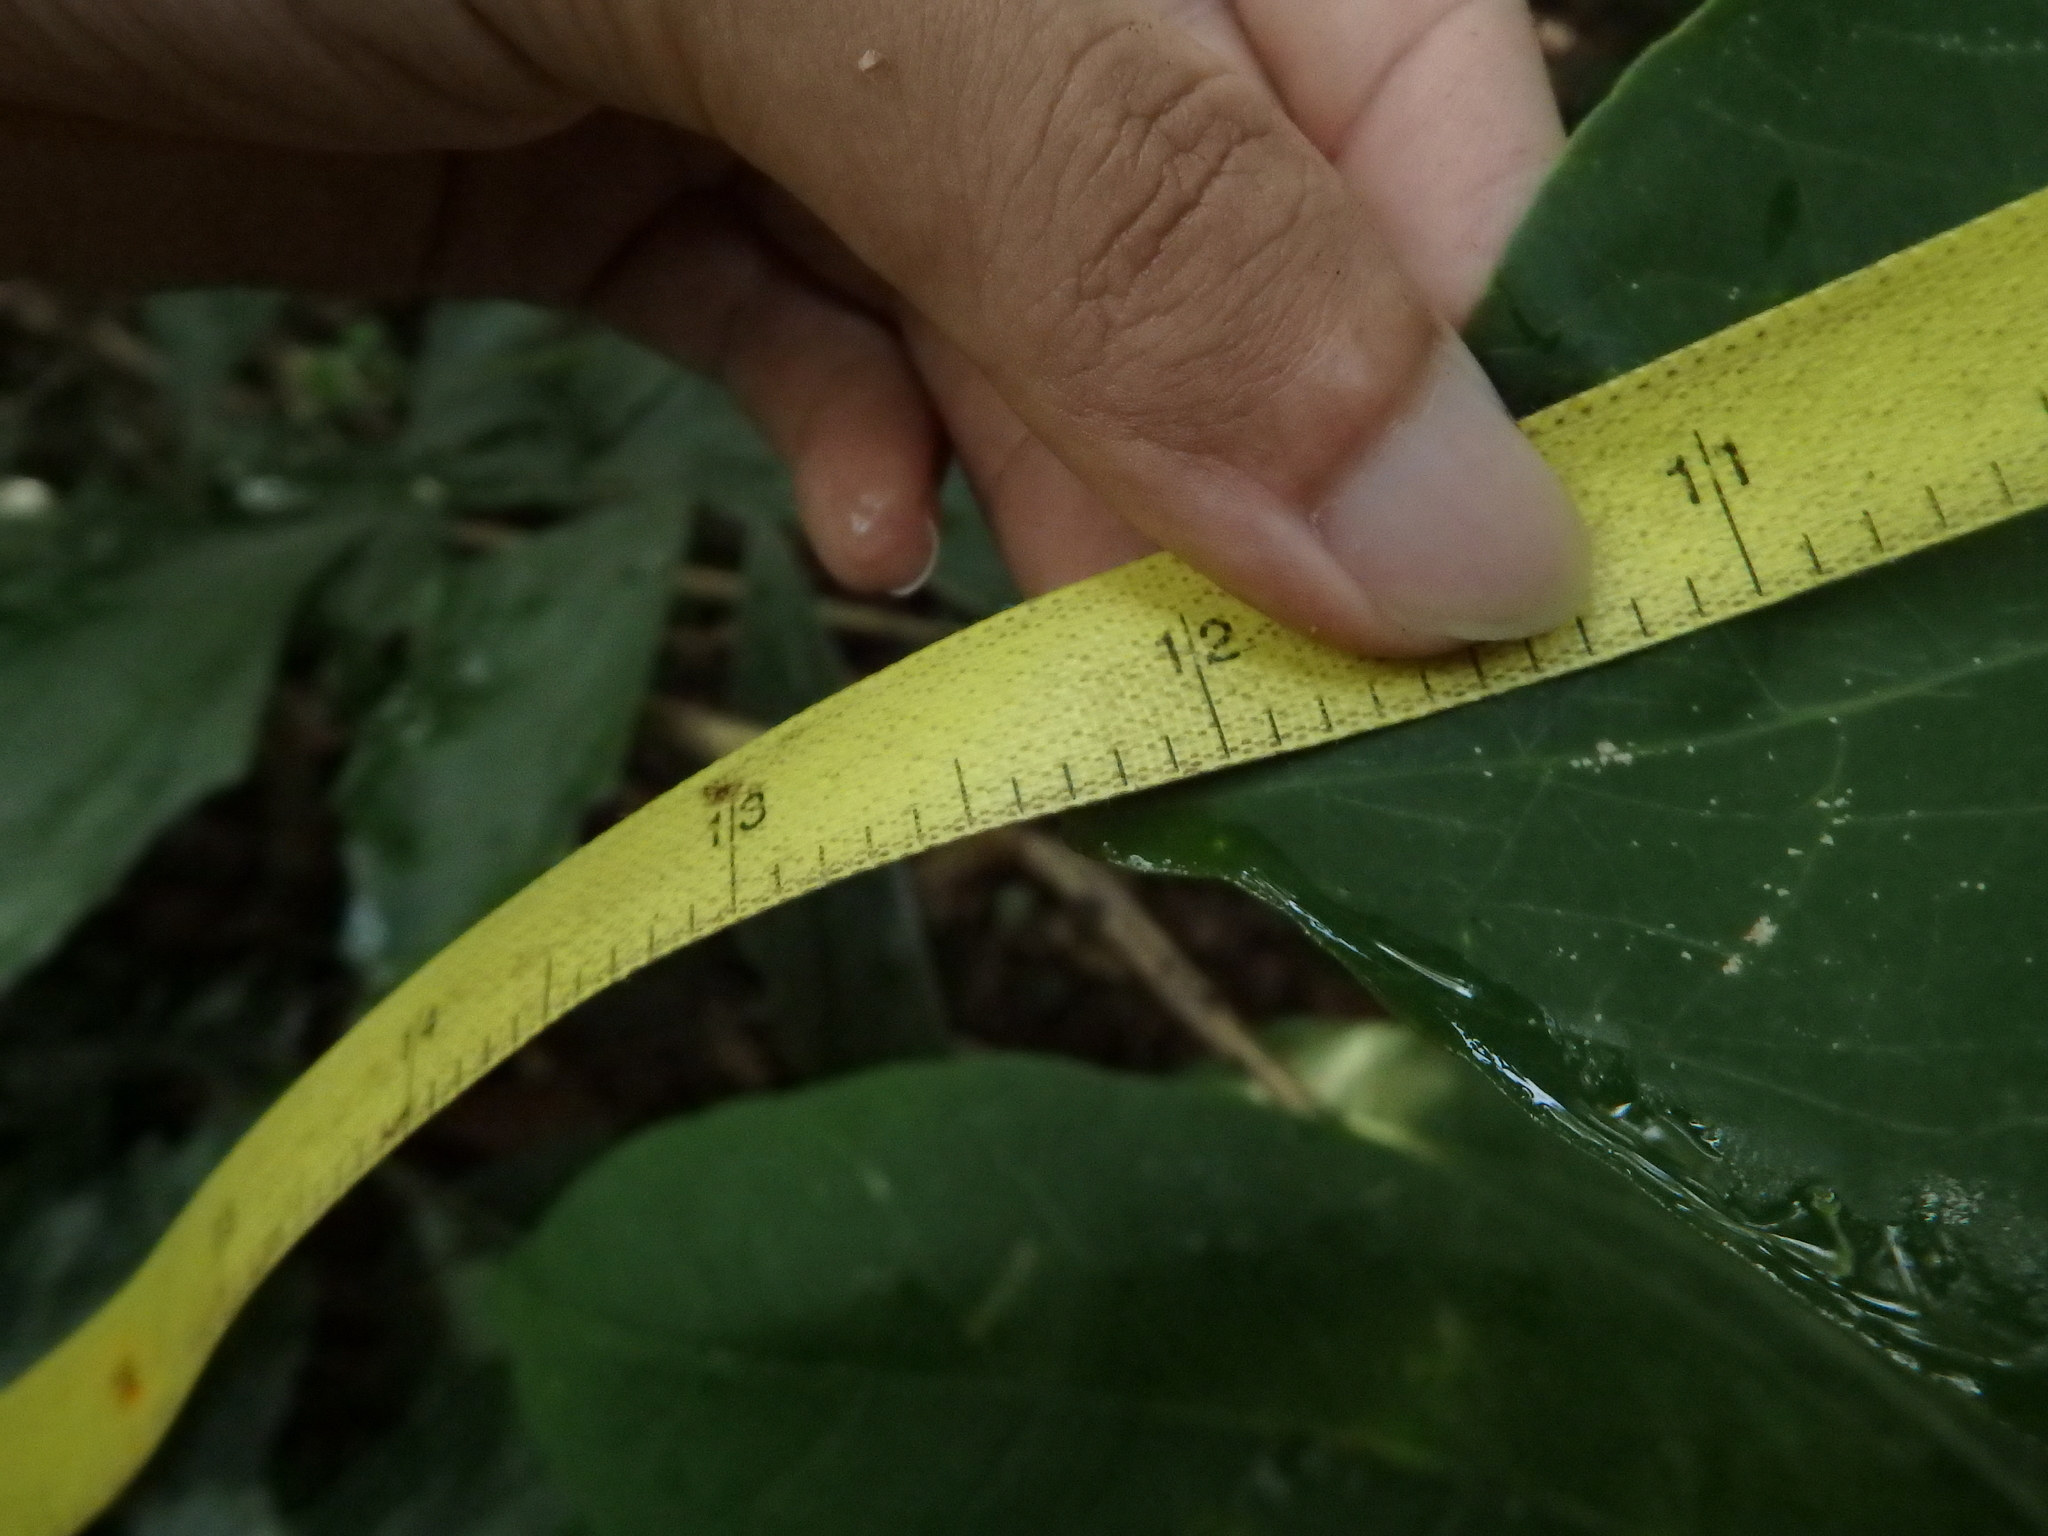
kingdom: Plantae
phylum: Tracheophyta
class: Magnoliopsida
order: Myrtales
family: Combretaceae
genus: Terminalia
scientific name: Terminalia catappa
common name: Tropical almond
